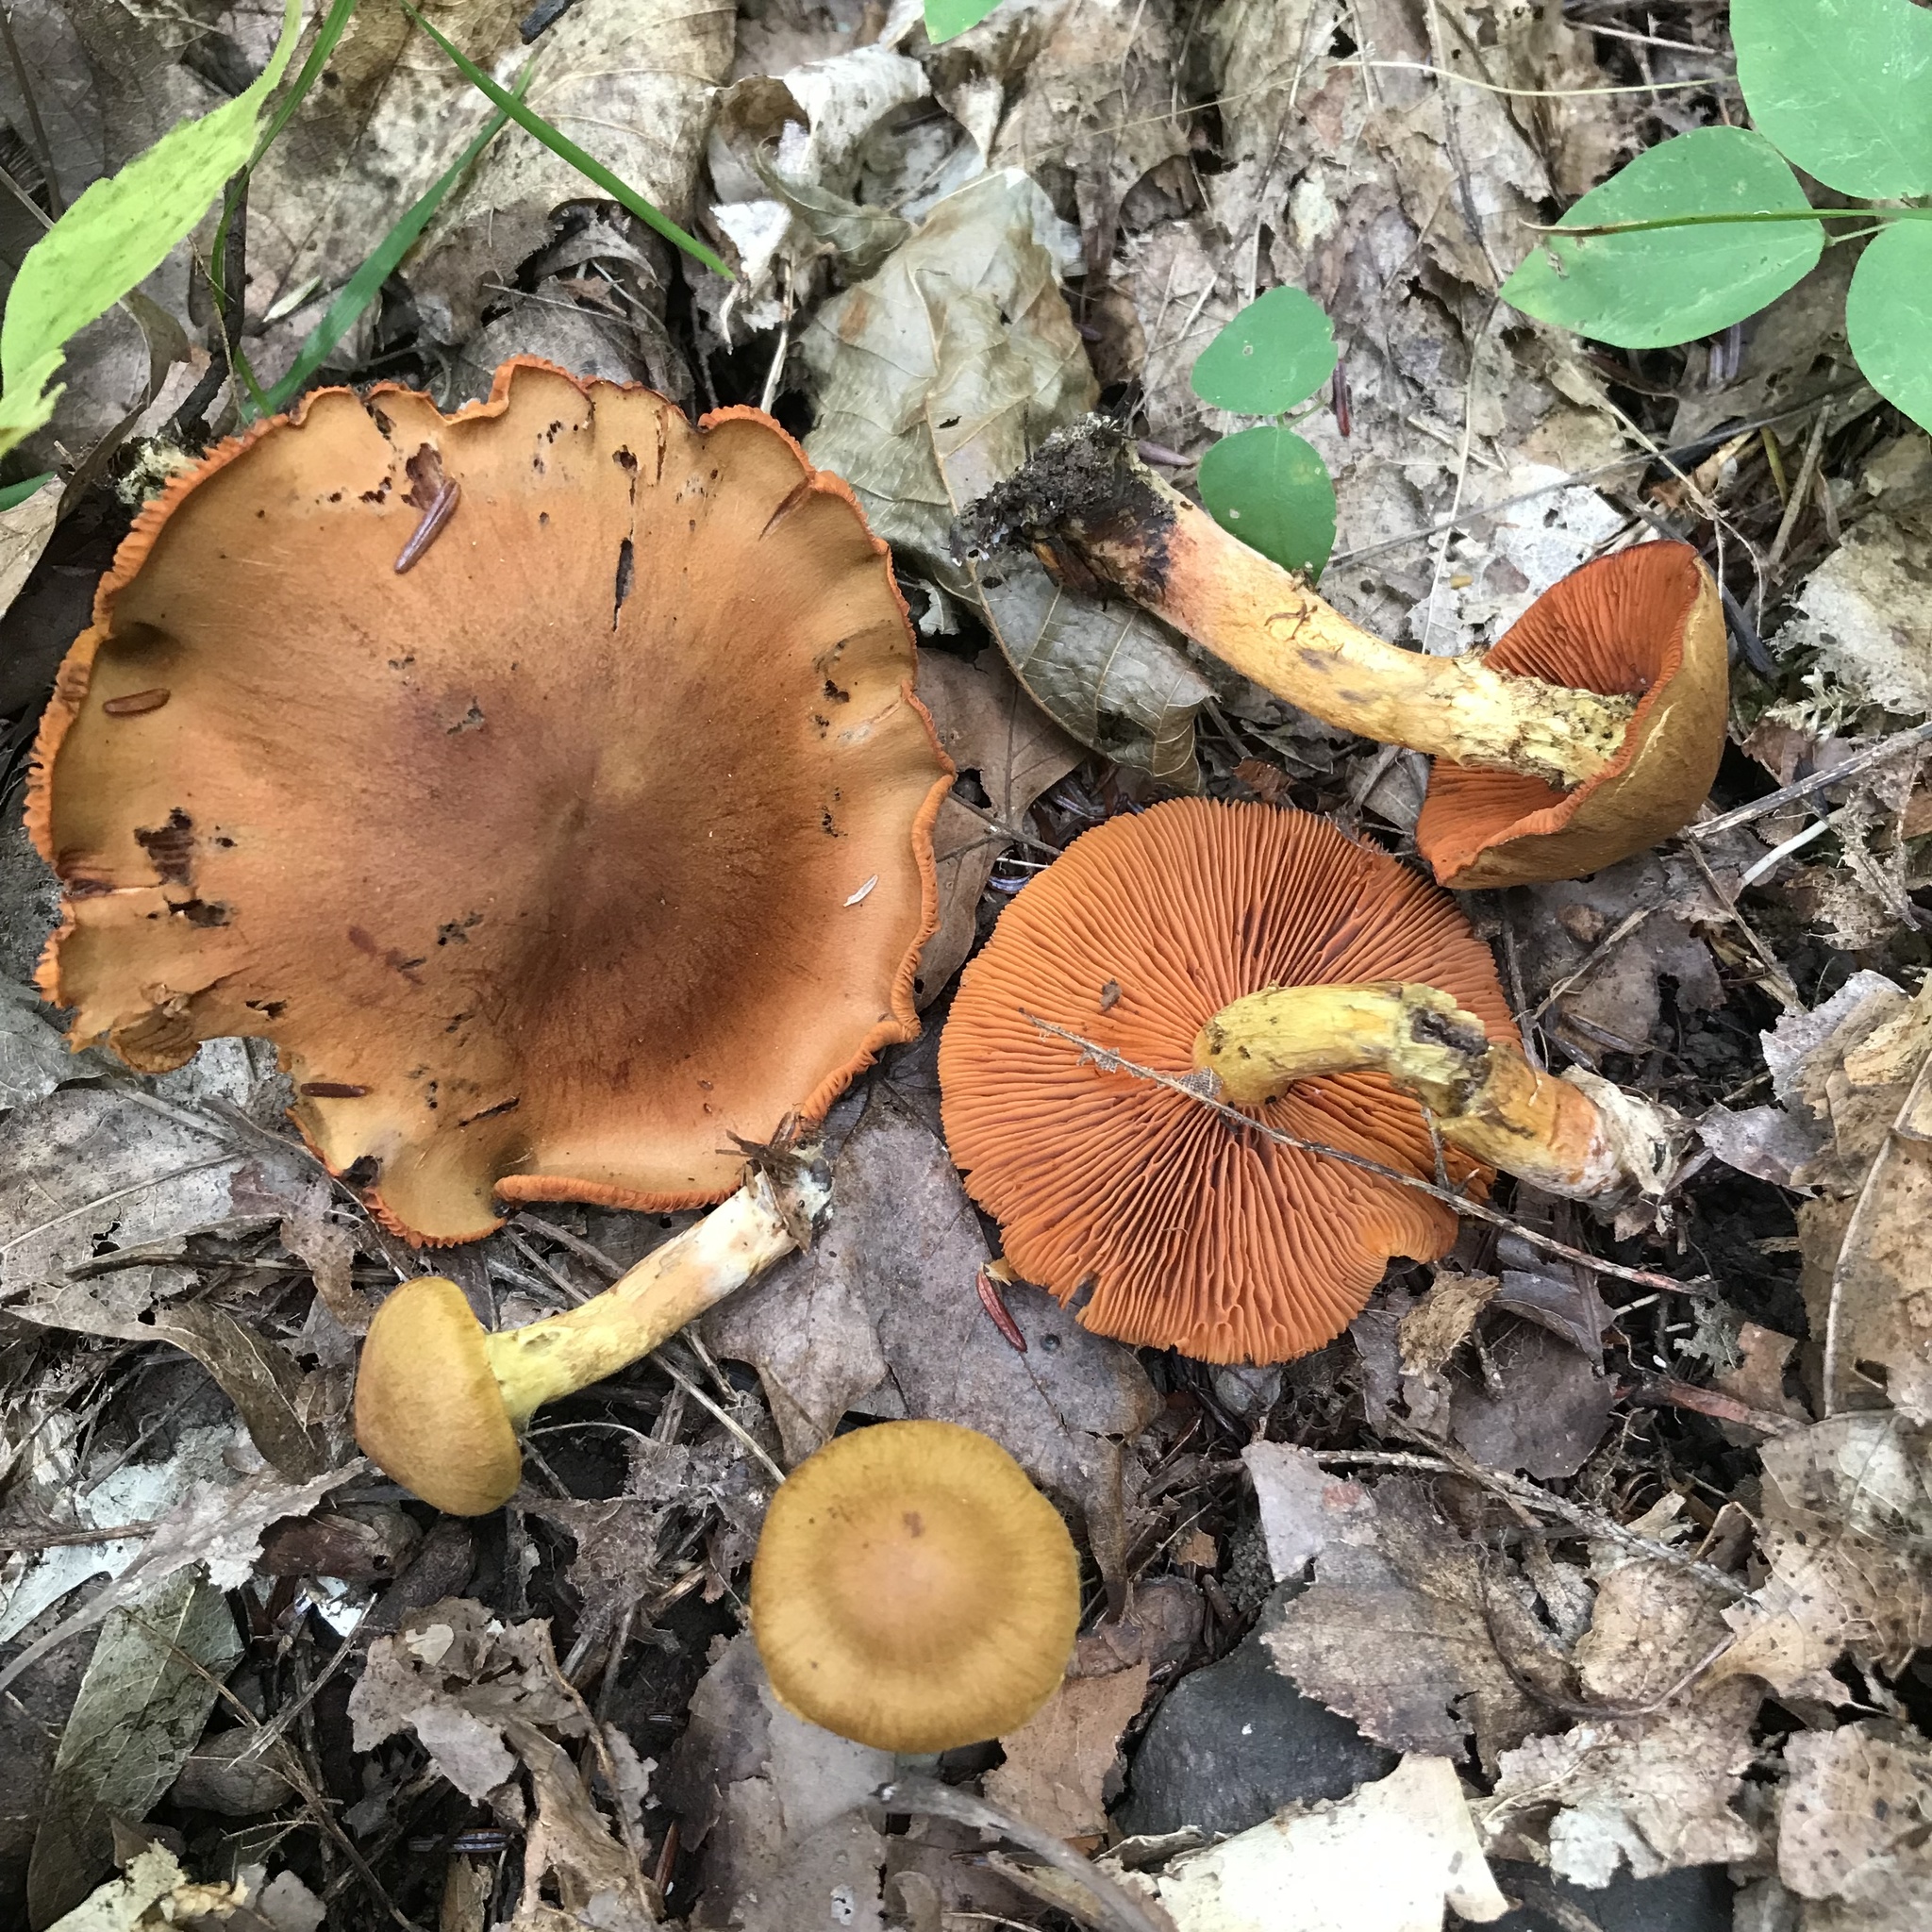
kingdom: Fungi
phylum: Basidiomycota
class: Agaricomycetes
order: Agaricales
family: Cortinariaceae
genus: Cortinarius
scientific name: Cortinarius semisanguineus
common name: Surprise webcap
